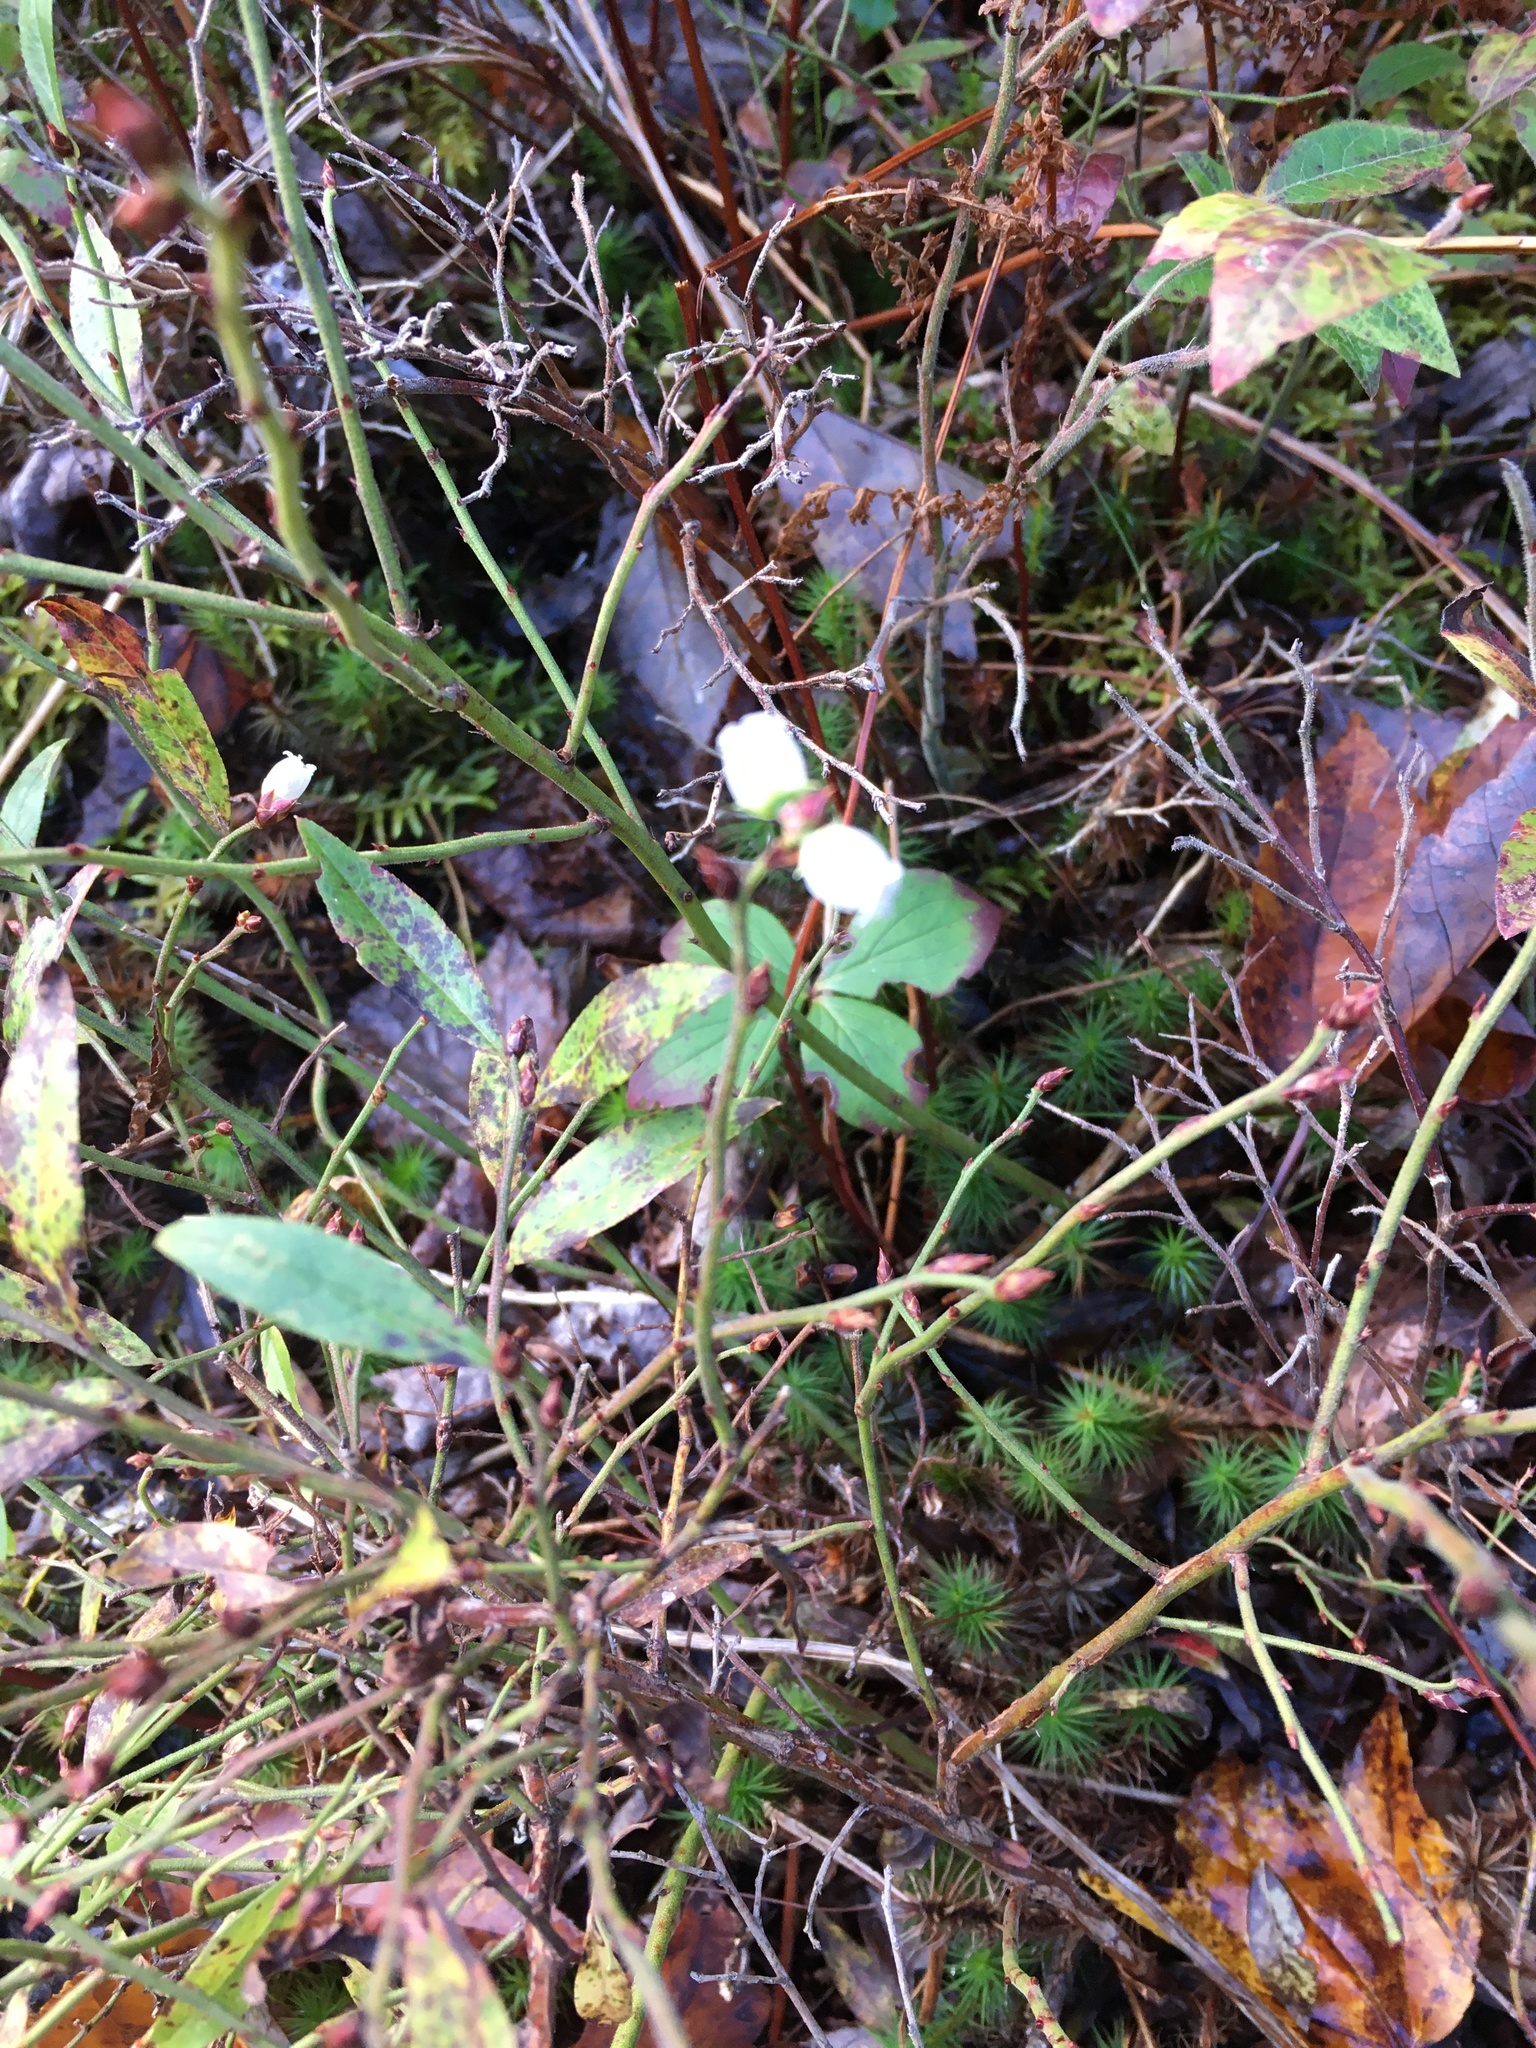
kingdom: Plantae
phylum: Tracheophyta
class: Magnoliopsida
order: Ericales
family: Ericaceae
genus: Vaccinium
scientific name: Vaccinium angustifolium
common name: Early lowbush blueberry
